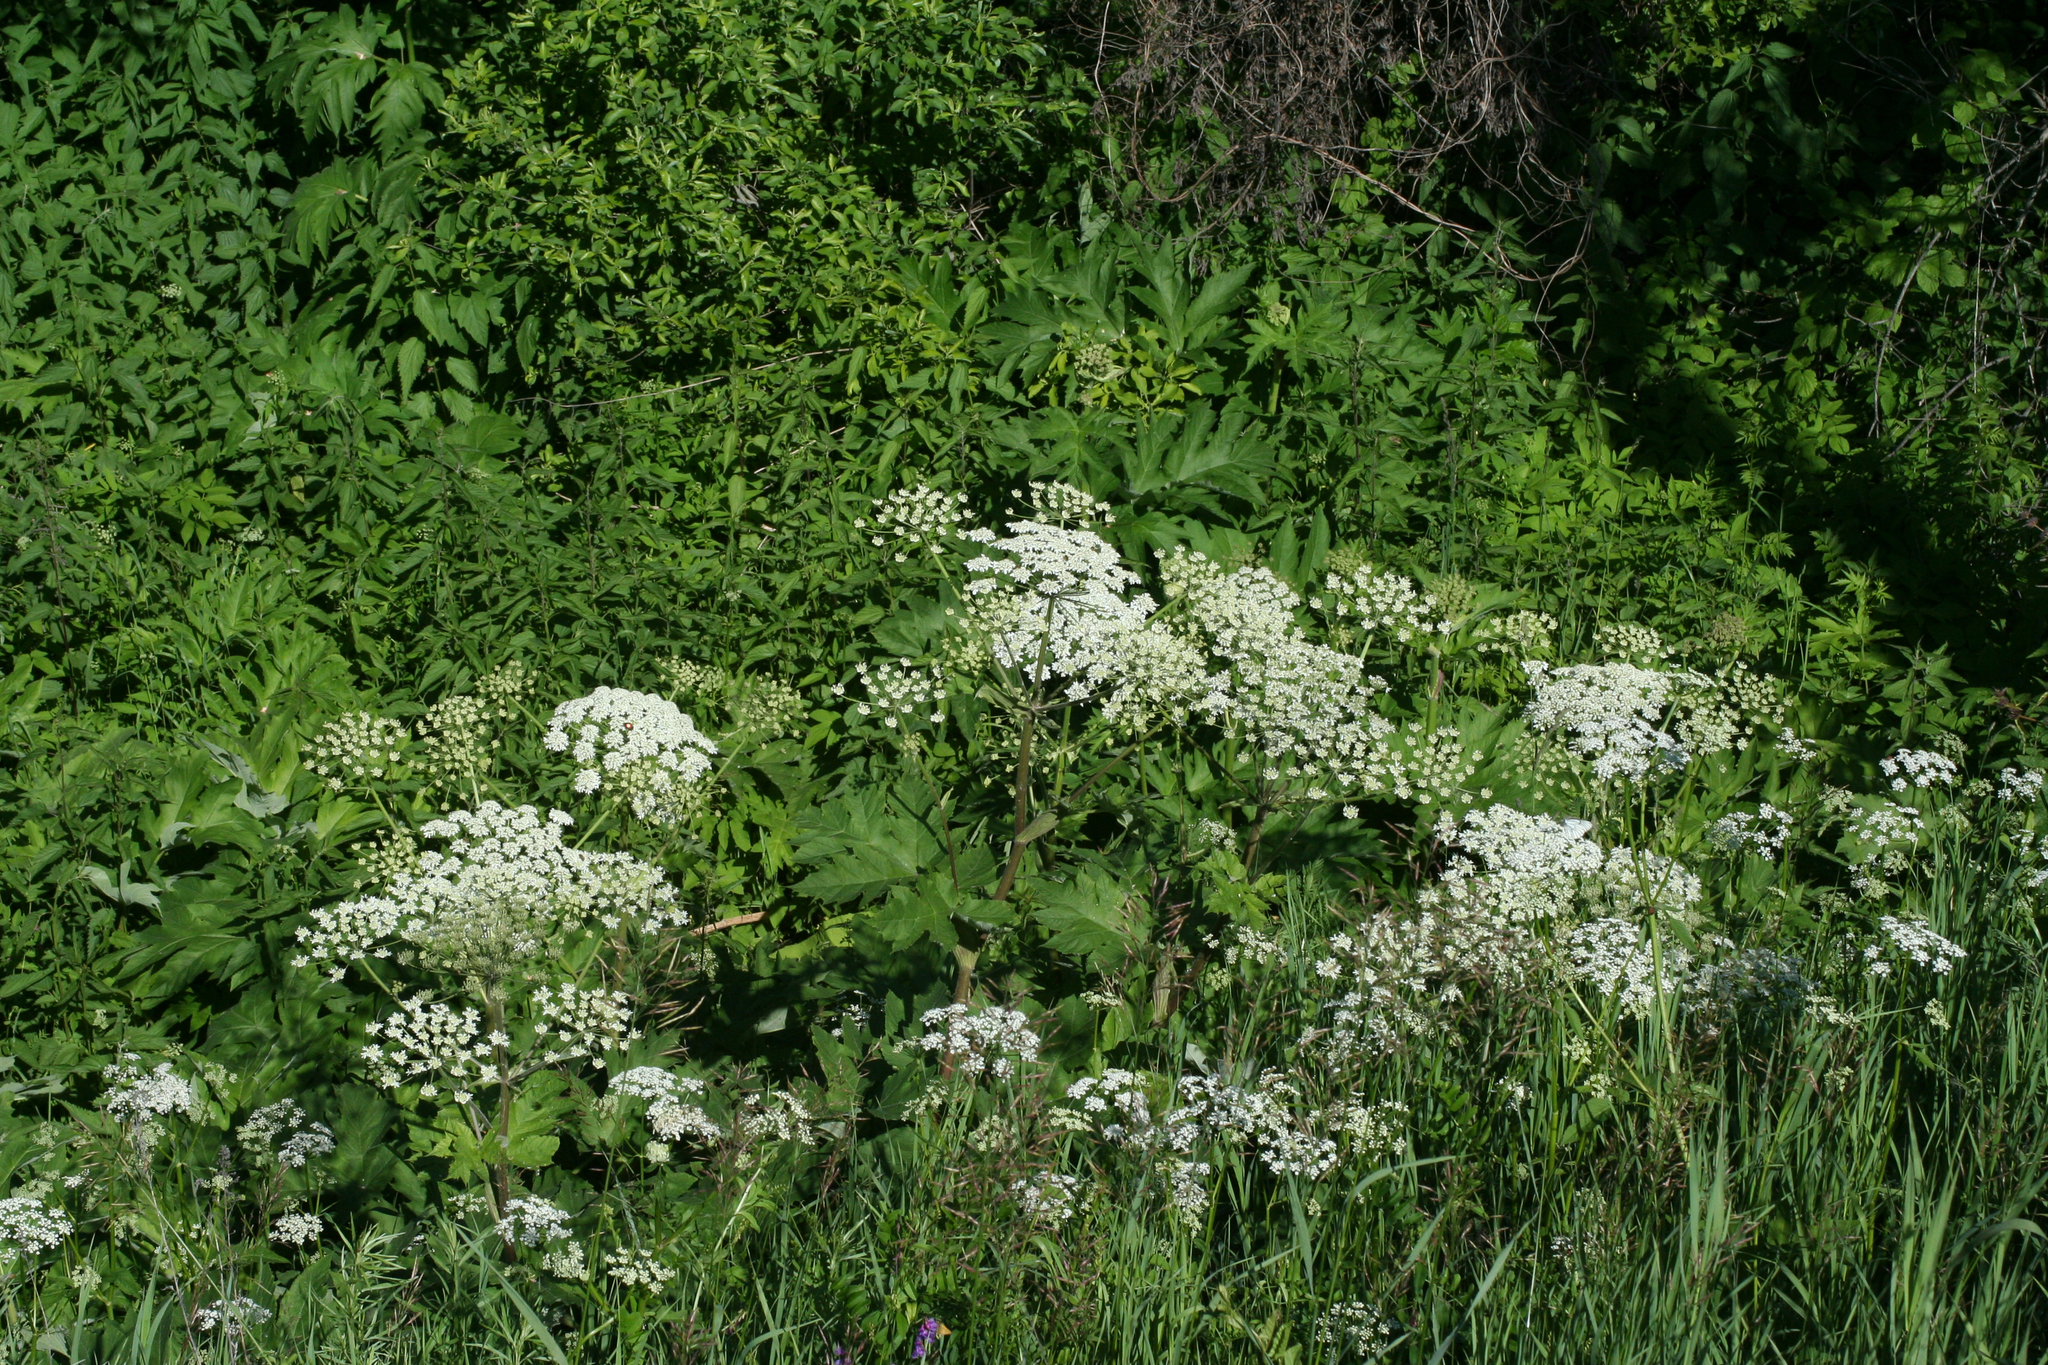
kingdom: Plantae
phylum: Tracheophyta
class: Magnoliopsida
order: Apiales
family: Apiaceae
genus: Heracleum
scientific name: Heracleum dissectum
